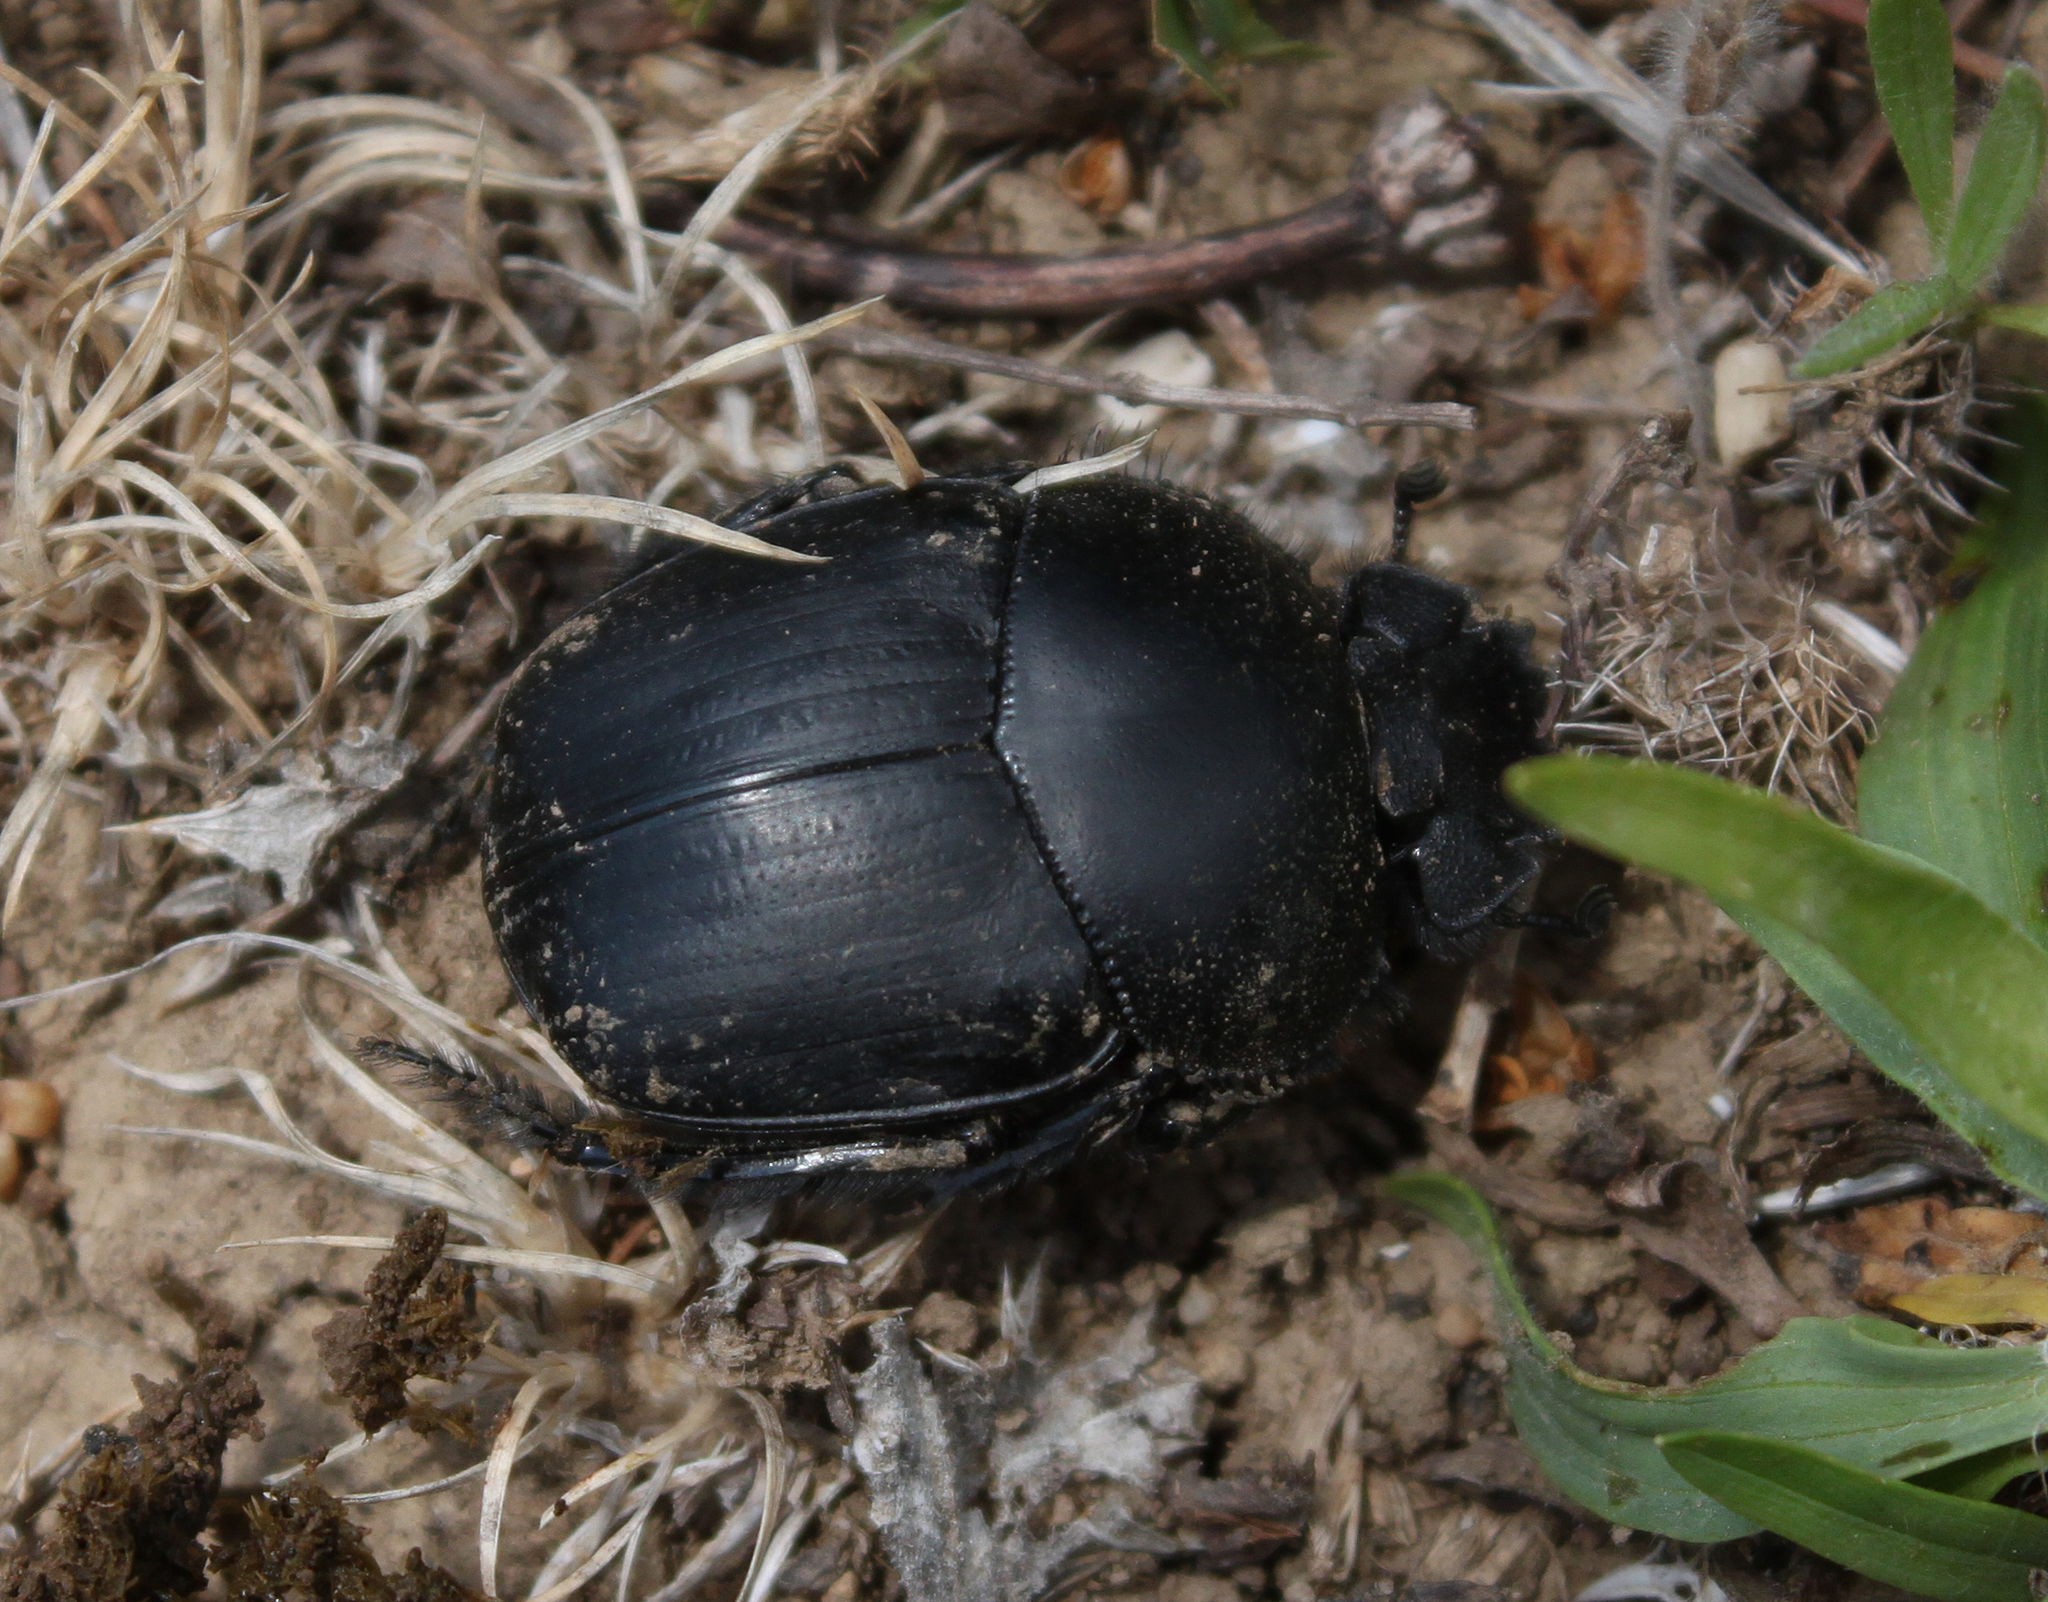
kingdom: Animalia
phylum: Arthropoda
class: Insecta
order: Coleoptera
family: Scarabaeidae
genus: Scarabaeus
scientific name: Scarabaeus pius
